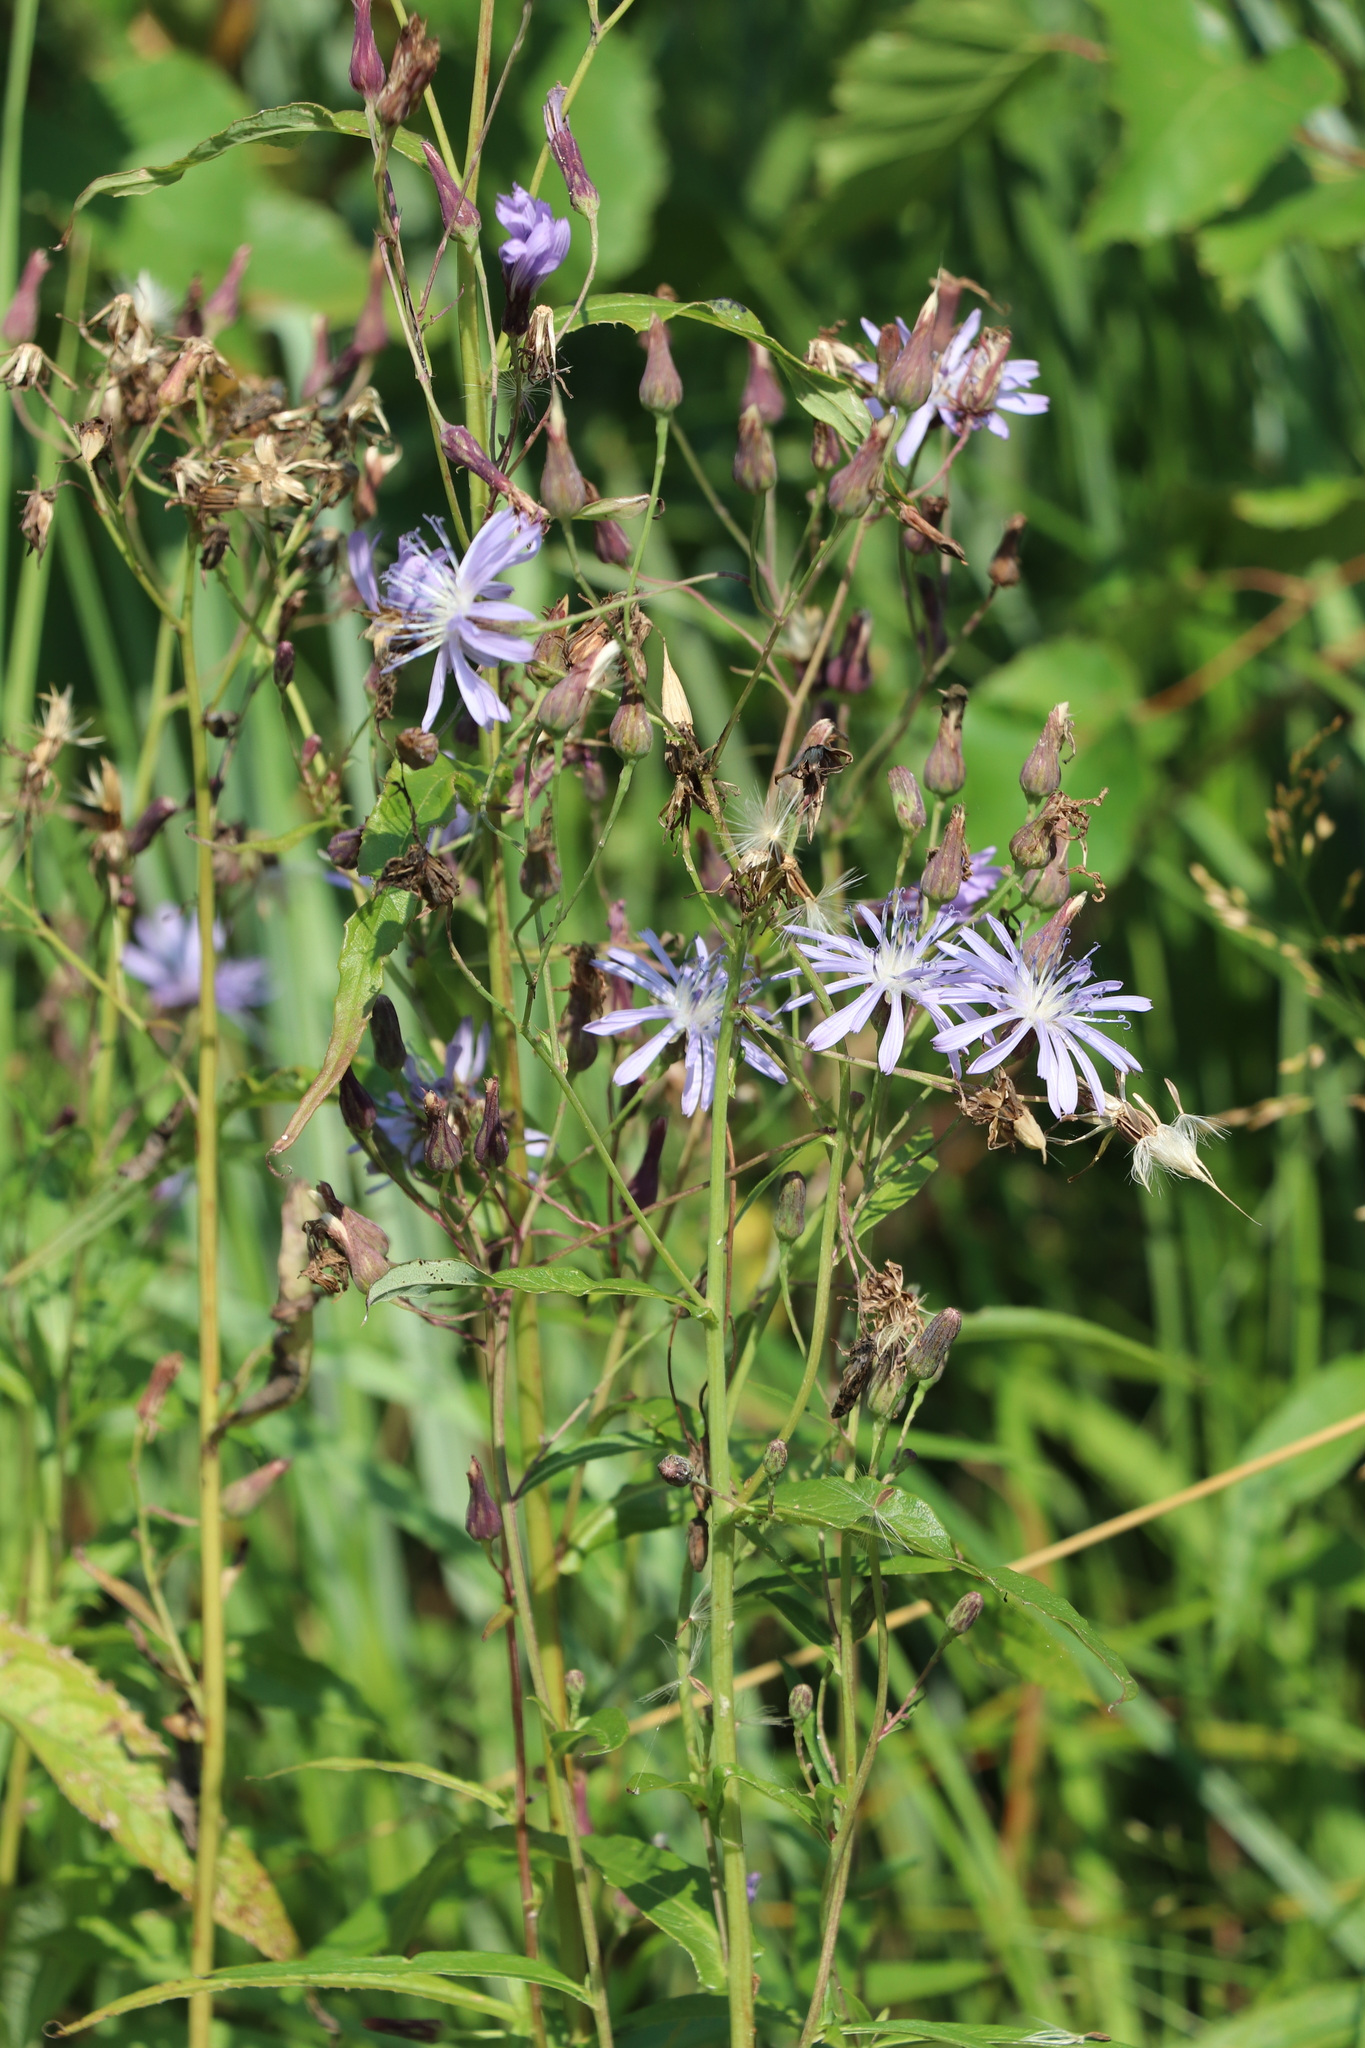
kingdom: Plantae
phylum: Tracheophyta
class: Magnoliopsida
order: Asterales
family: Asteraceae
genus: Lactuca
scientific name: Lactuca sibirica
